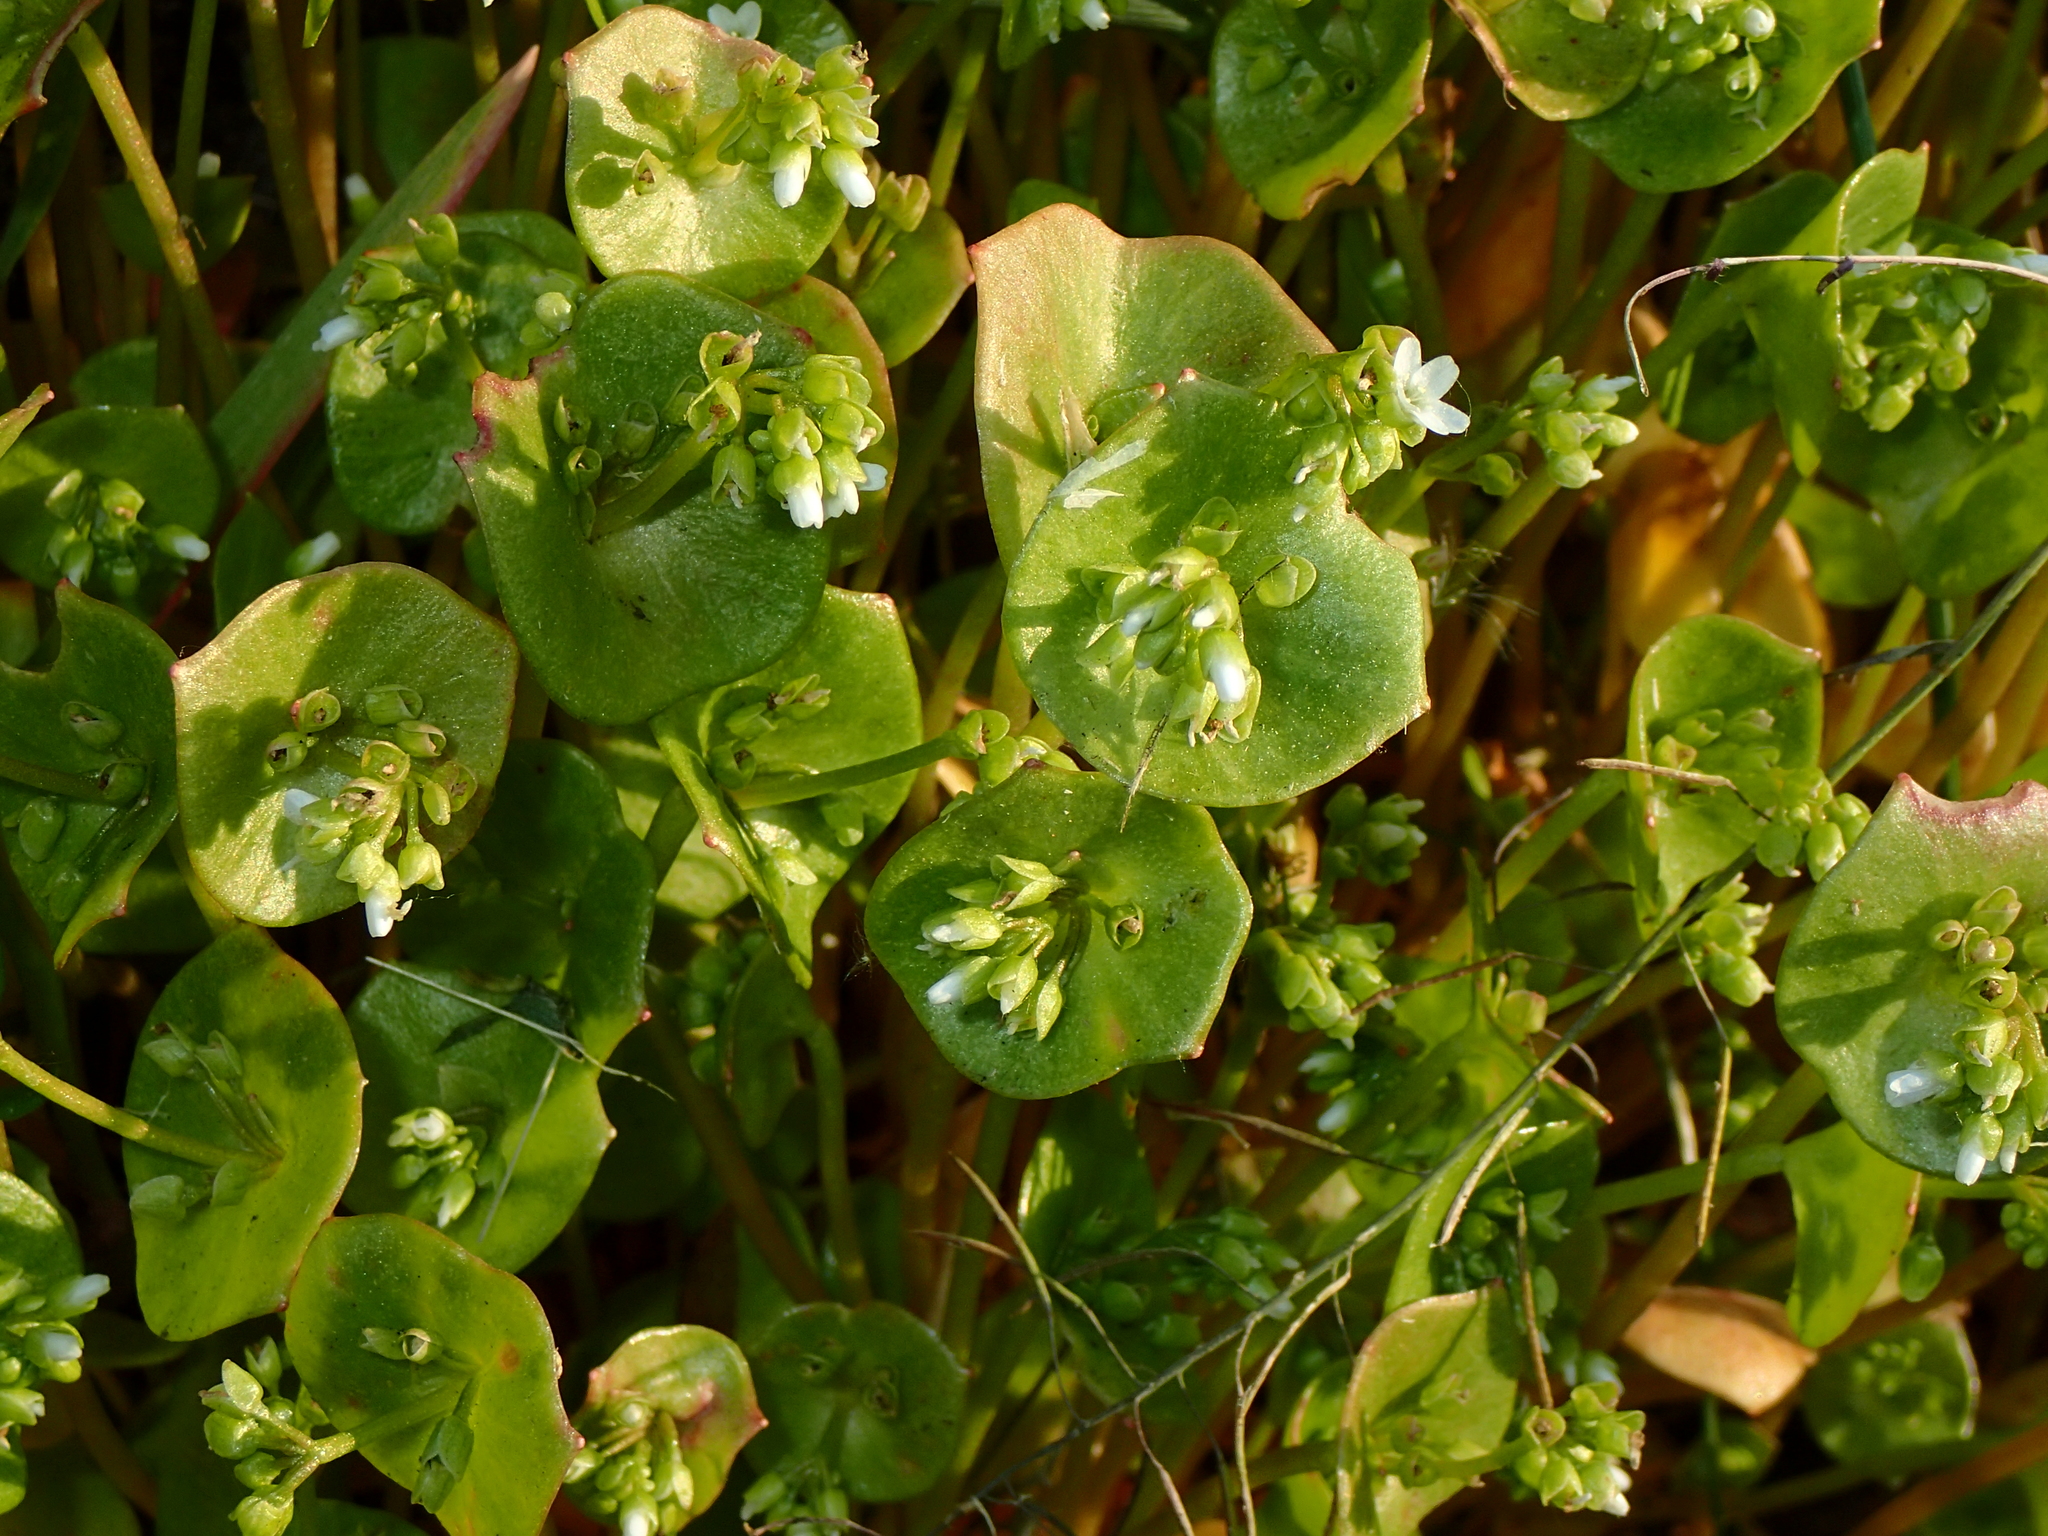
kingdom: Plantae
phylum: Tracheophyta
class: Magnoliopsida
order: Caryophyllales
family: Montiaceae
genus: Claytonia
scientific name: Claytonia perfoliata
